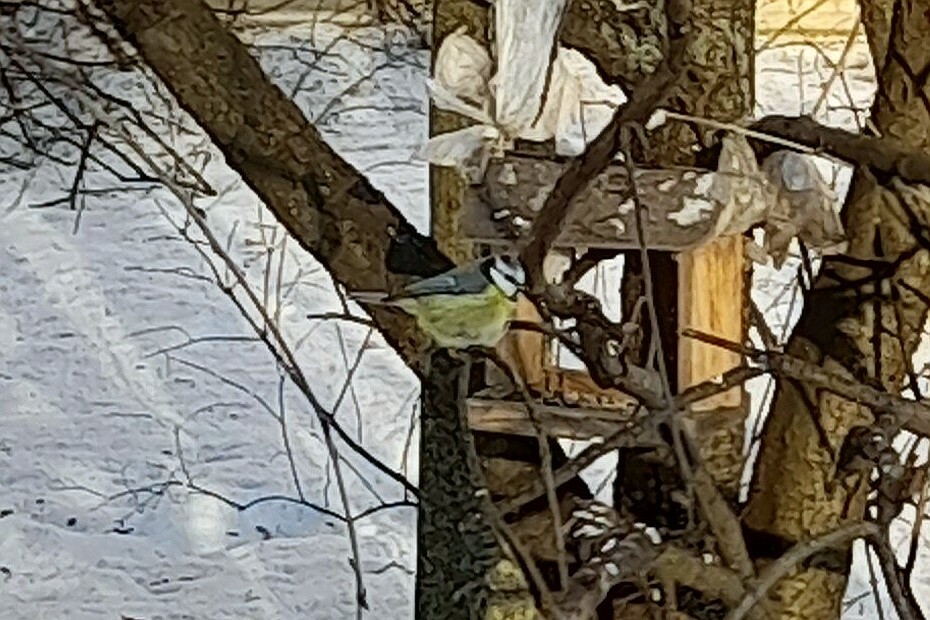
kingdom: Animalia
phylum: Chordata
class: Aves
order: Passeriformes
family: Paridae
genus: Cyanistes
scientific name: Cyanistes caeruleus
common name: Eurasian blue tit
